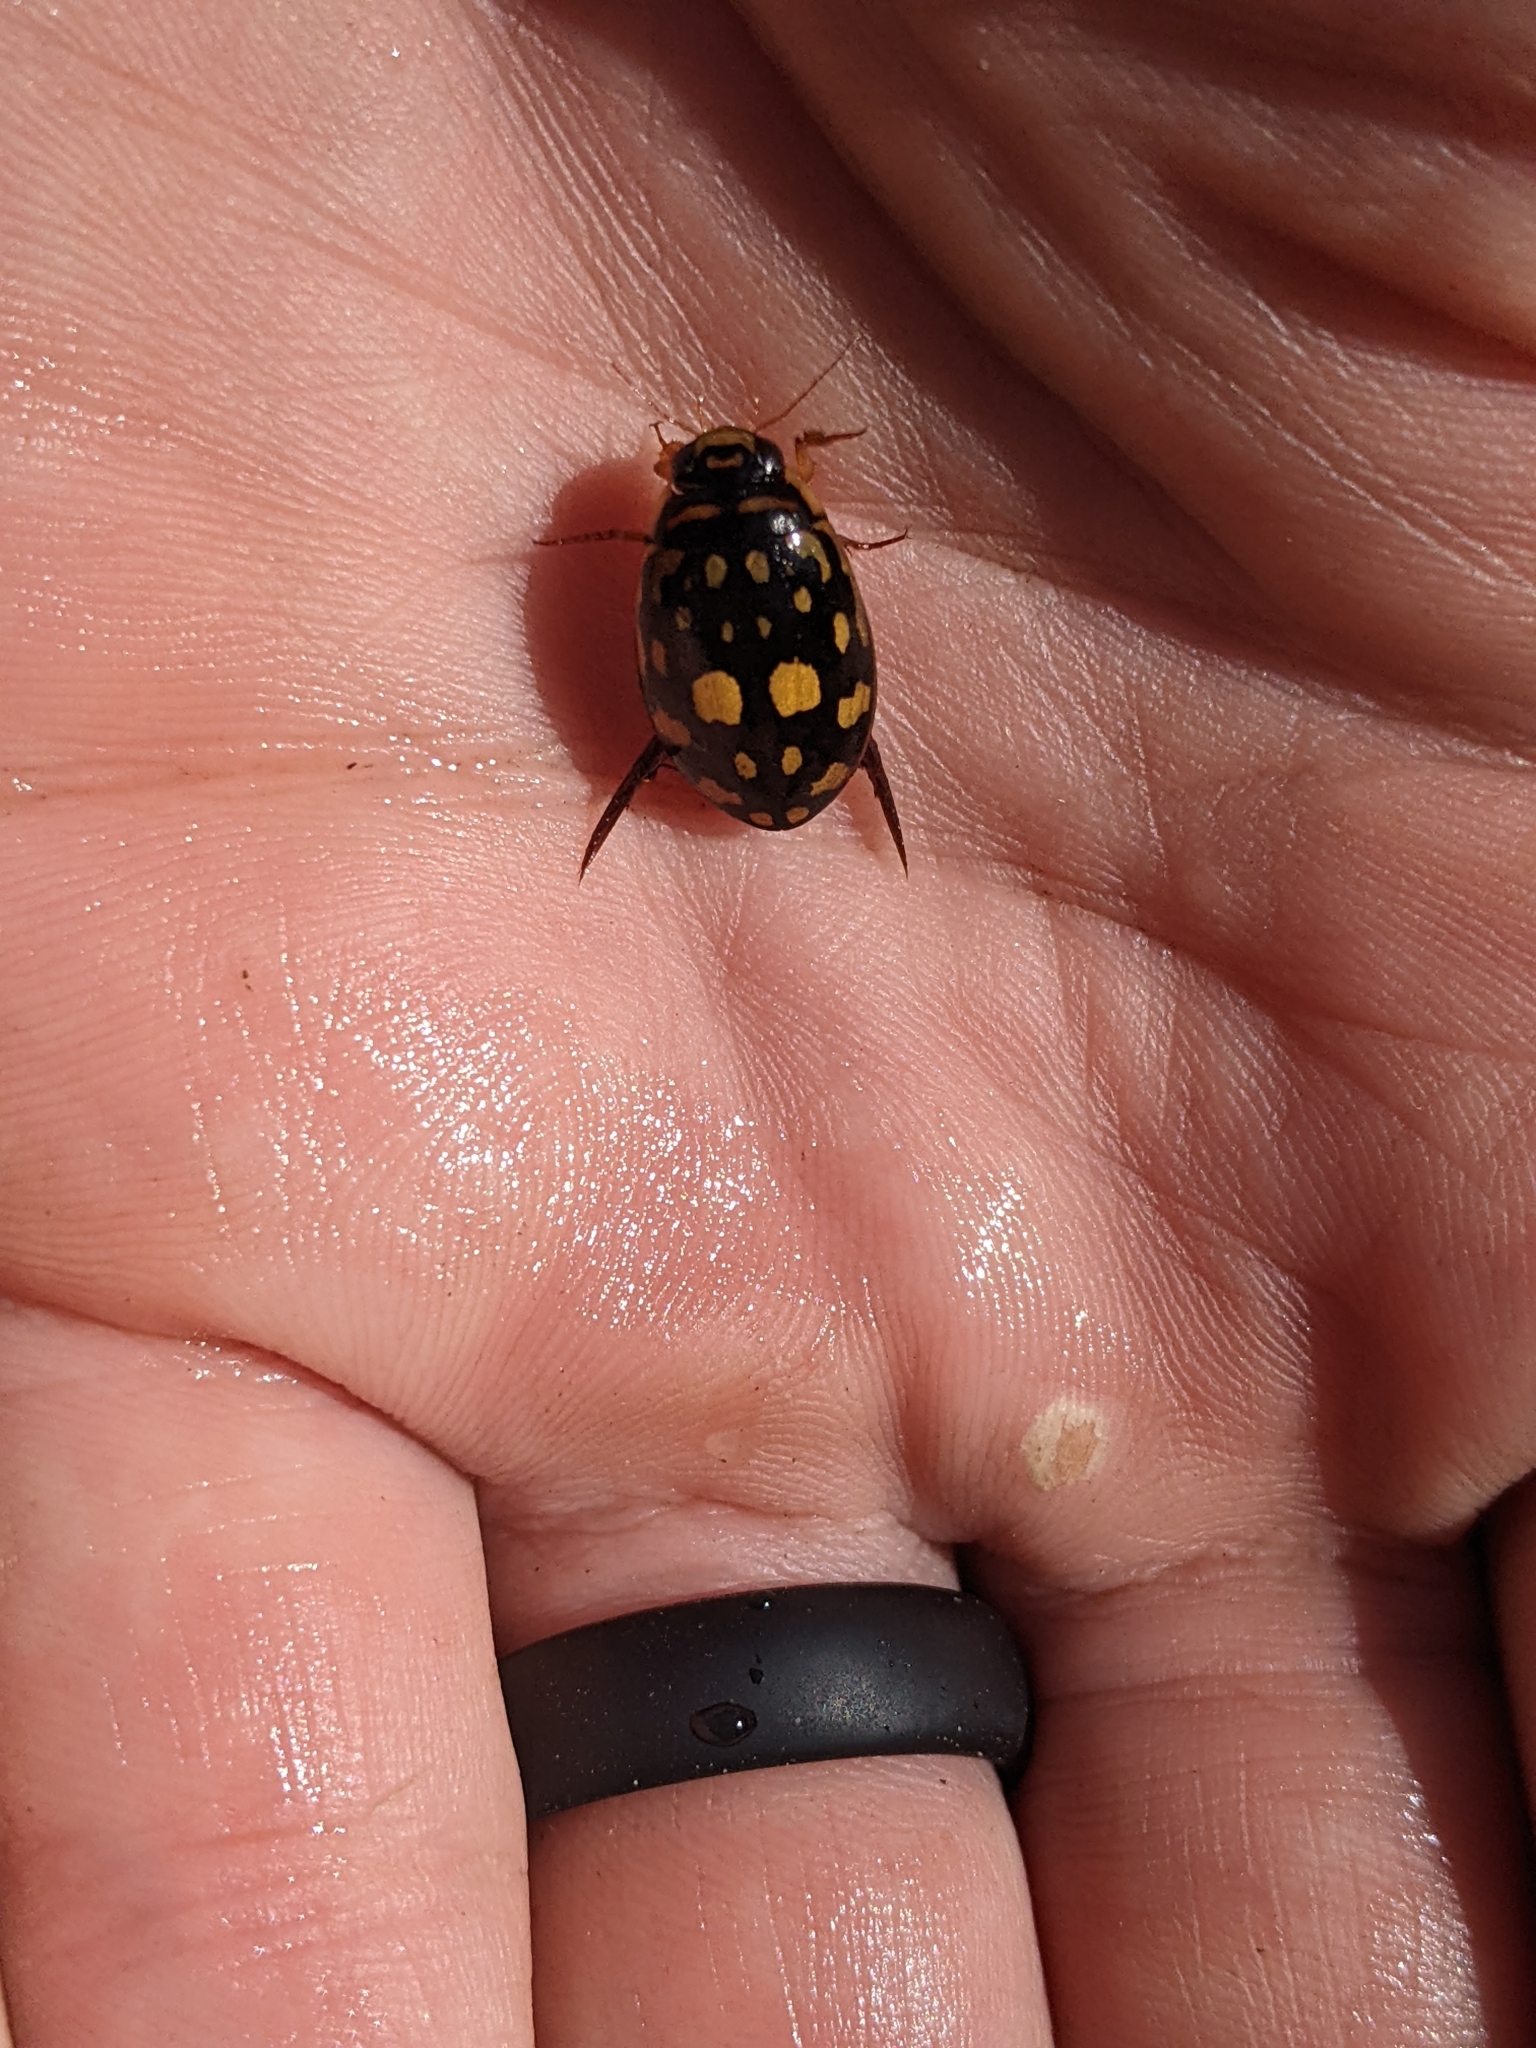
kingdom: Animalia
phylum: Arthropoda
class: Insecta
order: Coleoptera
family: Dytiscidae
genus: Thermonectus
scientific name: Thermonectus marmoratus
